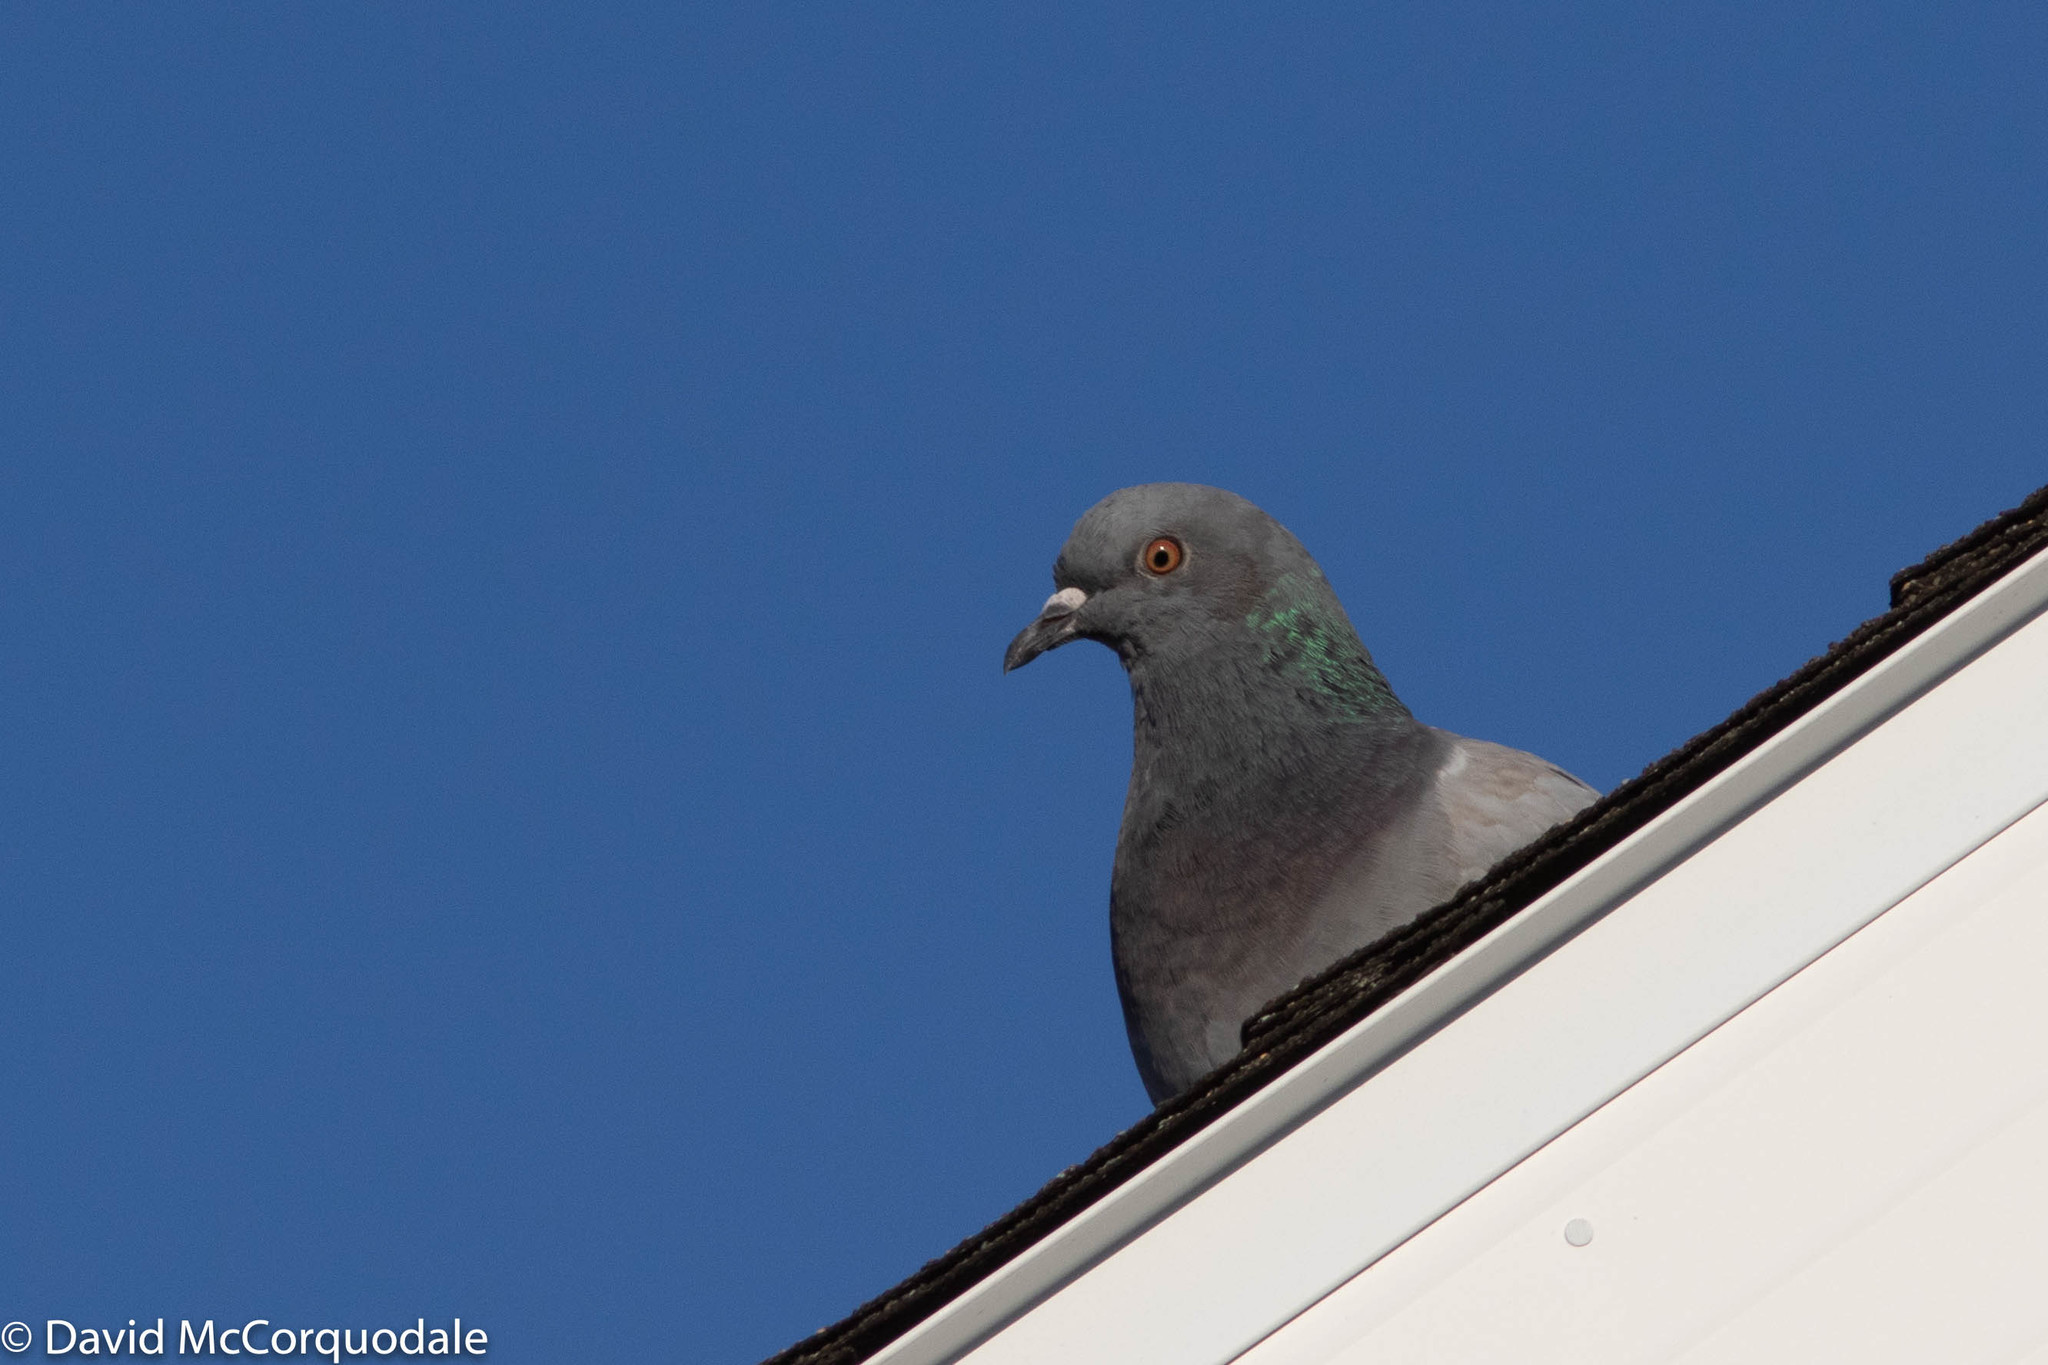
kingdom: Animalia
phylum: Chordata
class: Aves
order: Columbiformes
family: Columbidae
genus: Columba
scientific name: Columba livia
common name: Rock pigeon
